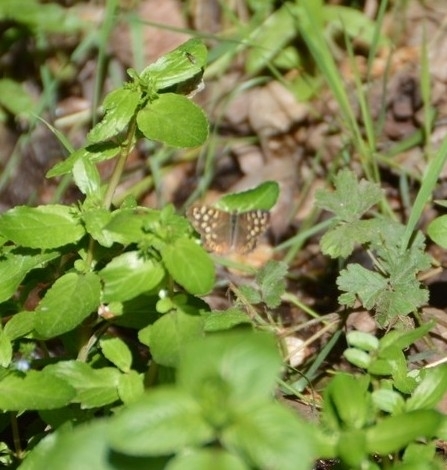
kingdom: Animalia
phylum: Arthropoda
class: Insecta
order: Lepidoptera
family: Nymphalidae
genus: Pararge
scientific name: Pararge aegeria
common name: Speckled wood
